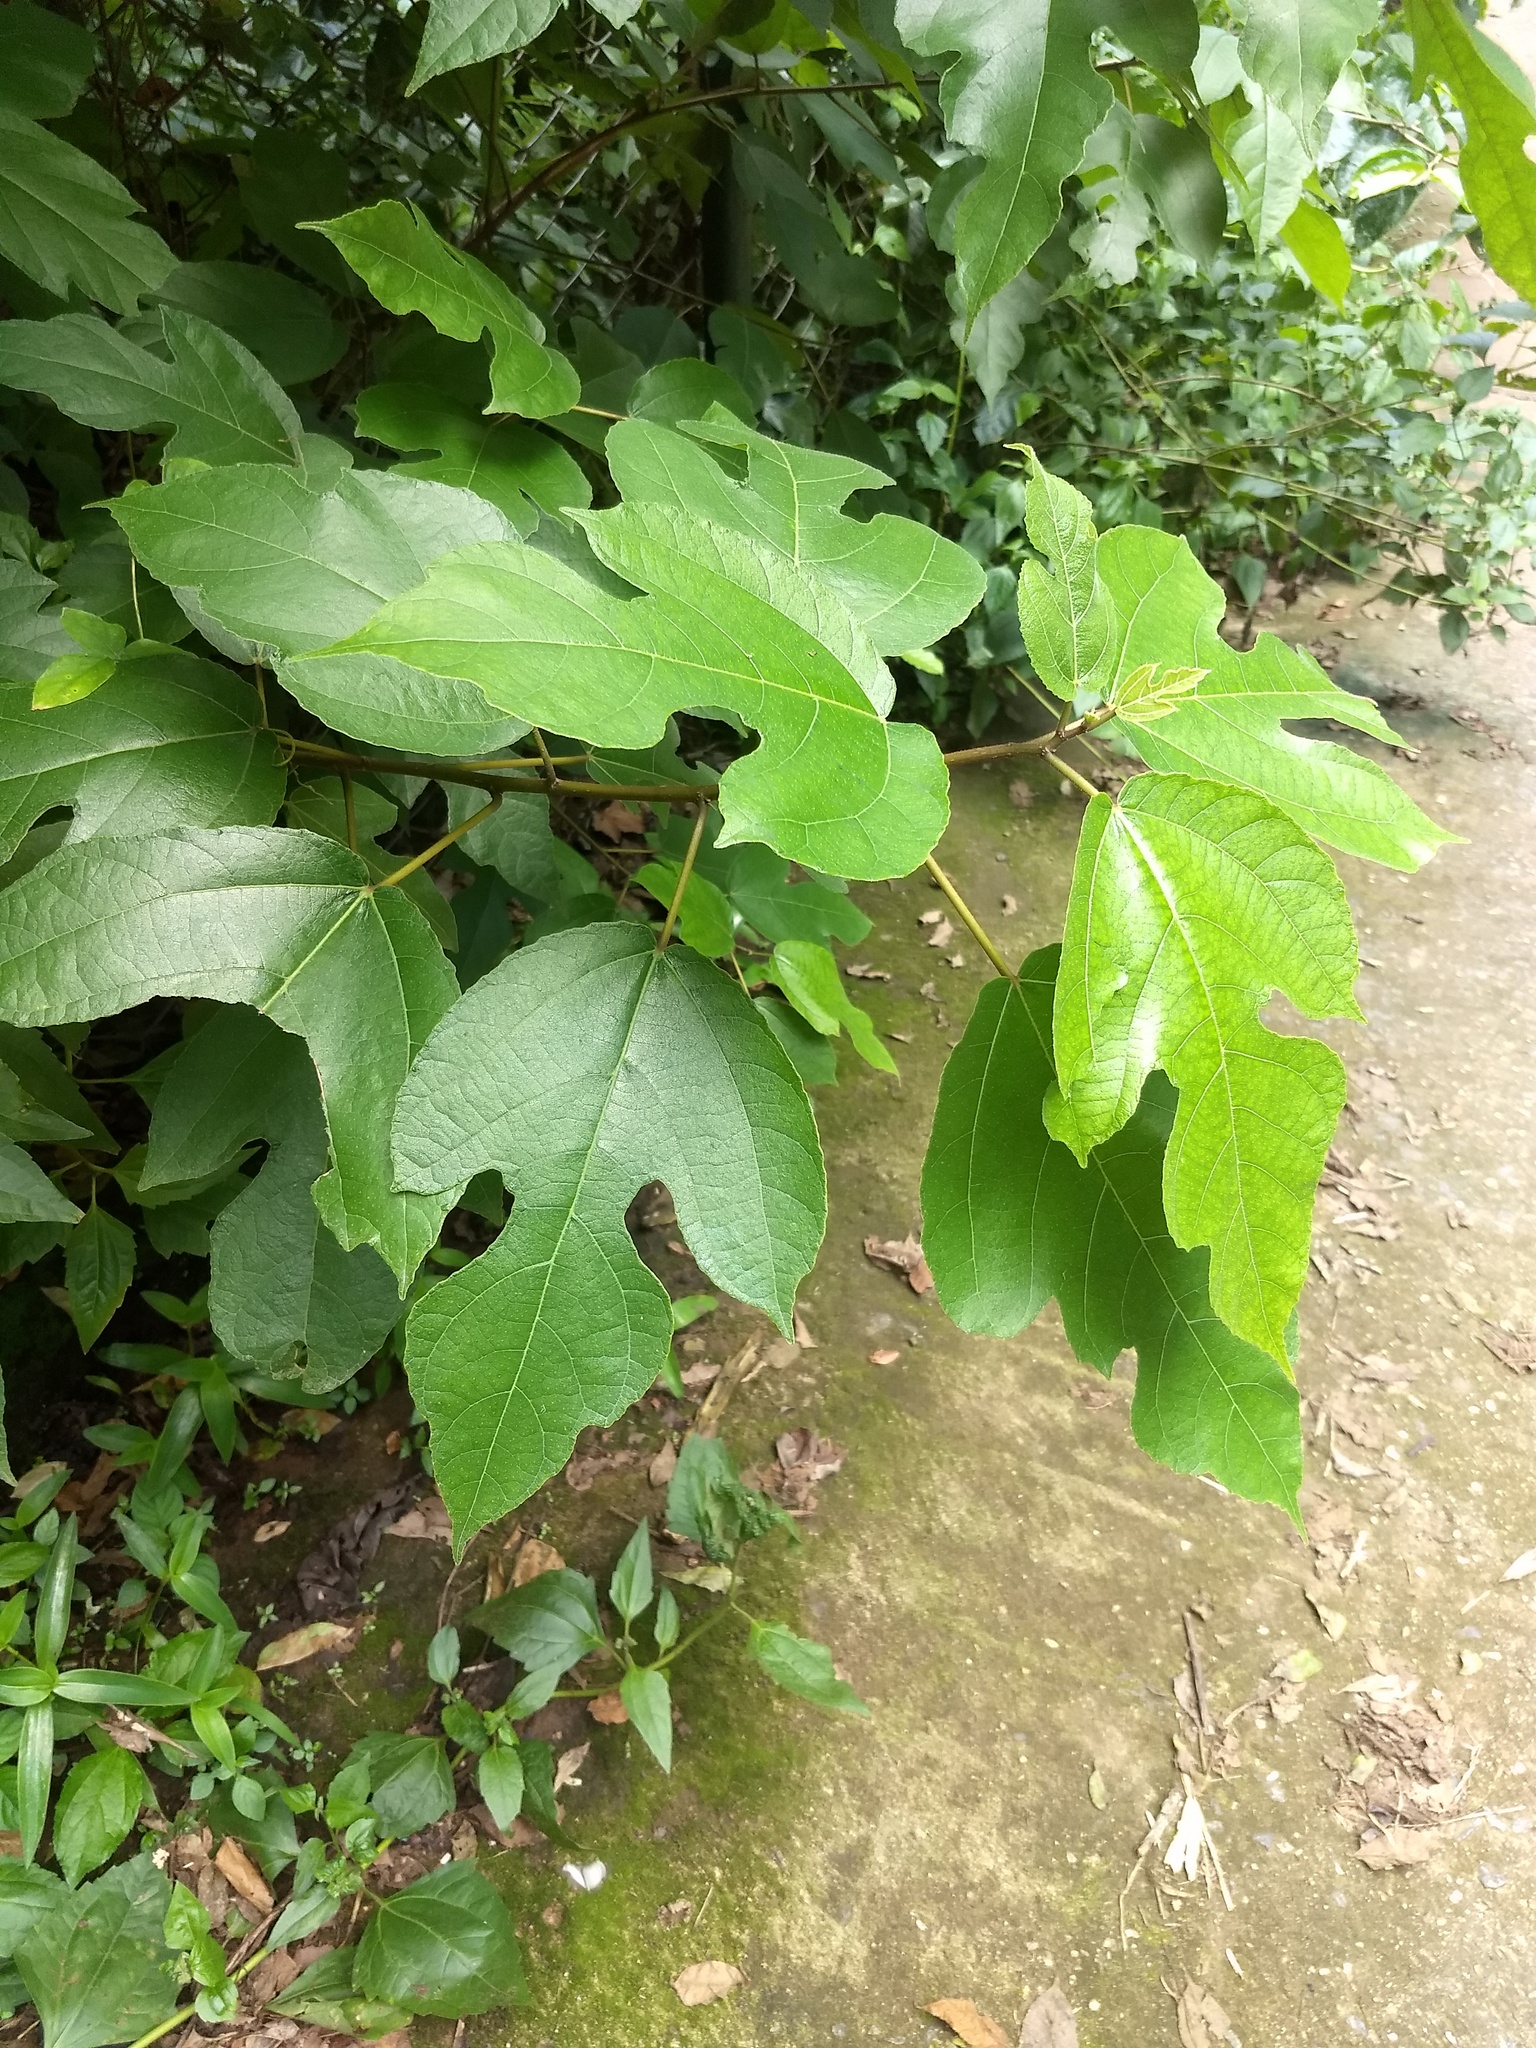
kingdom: Plantae
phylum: Tracheophyta
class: Magnoliopsida
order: Rosales
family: Moraceae
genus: Ficus
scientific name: Ficus hispida
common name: Hairy fig
